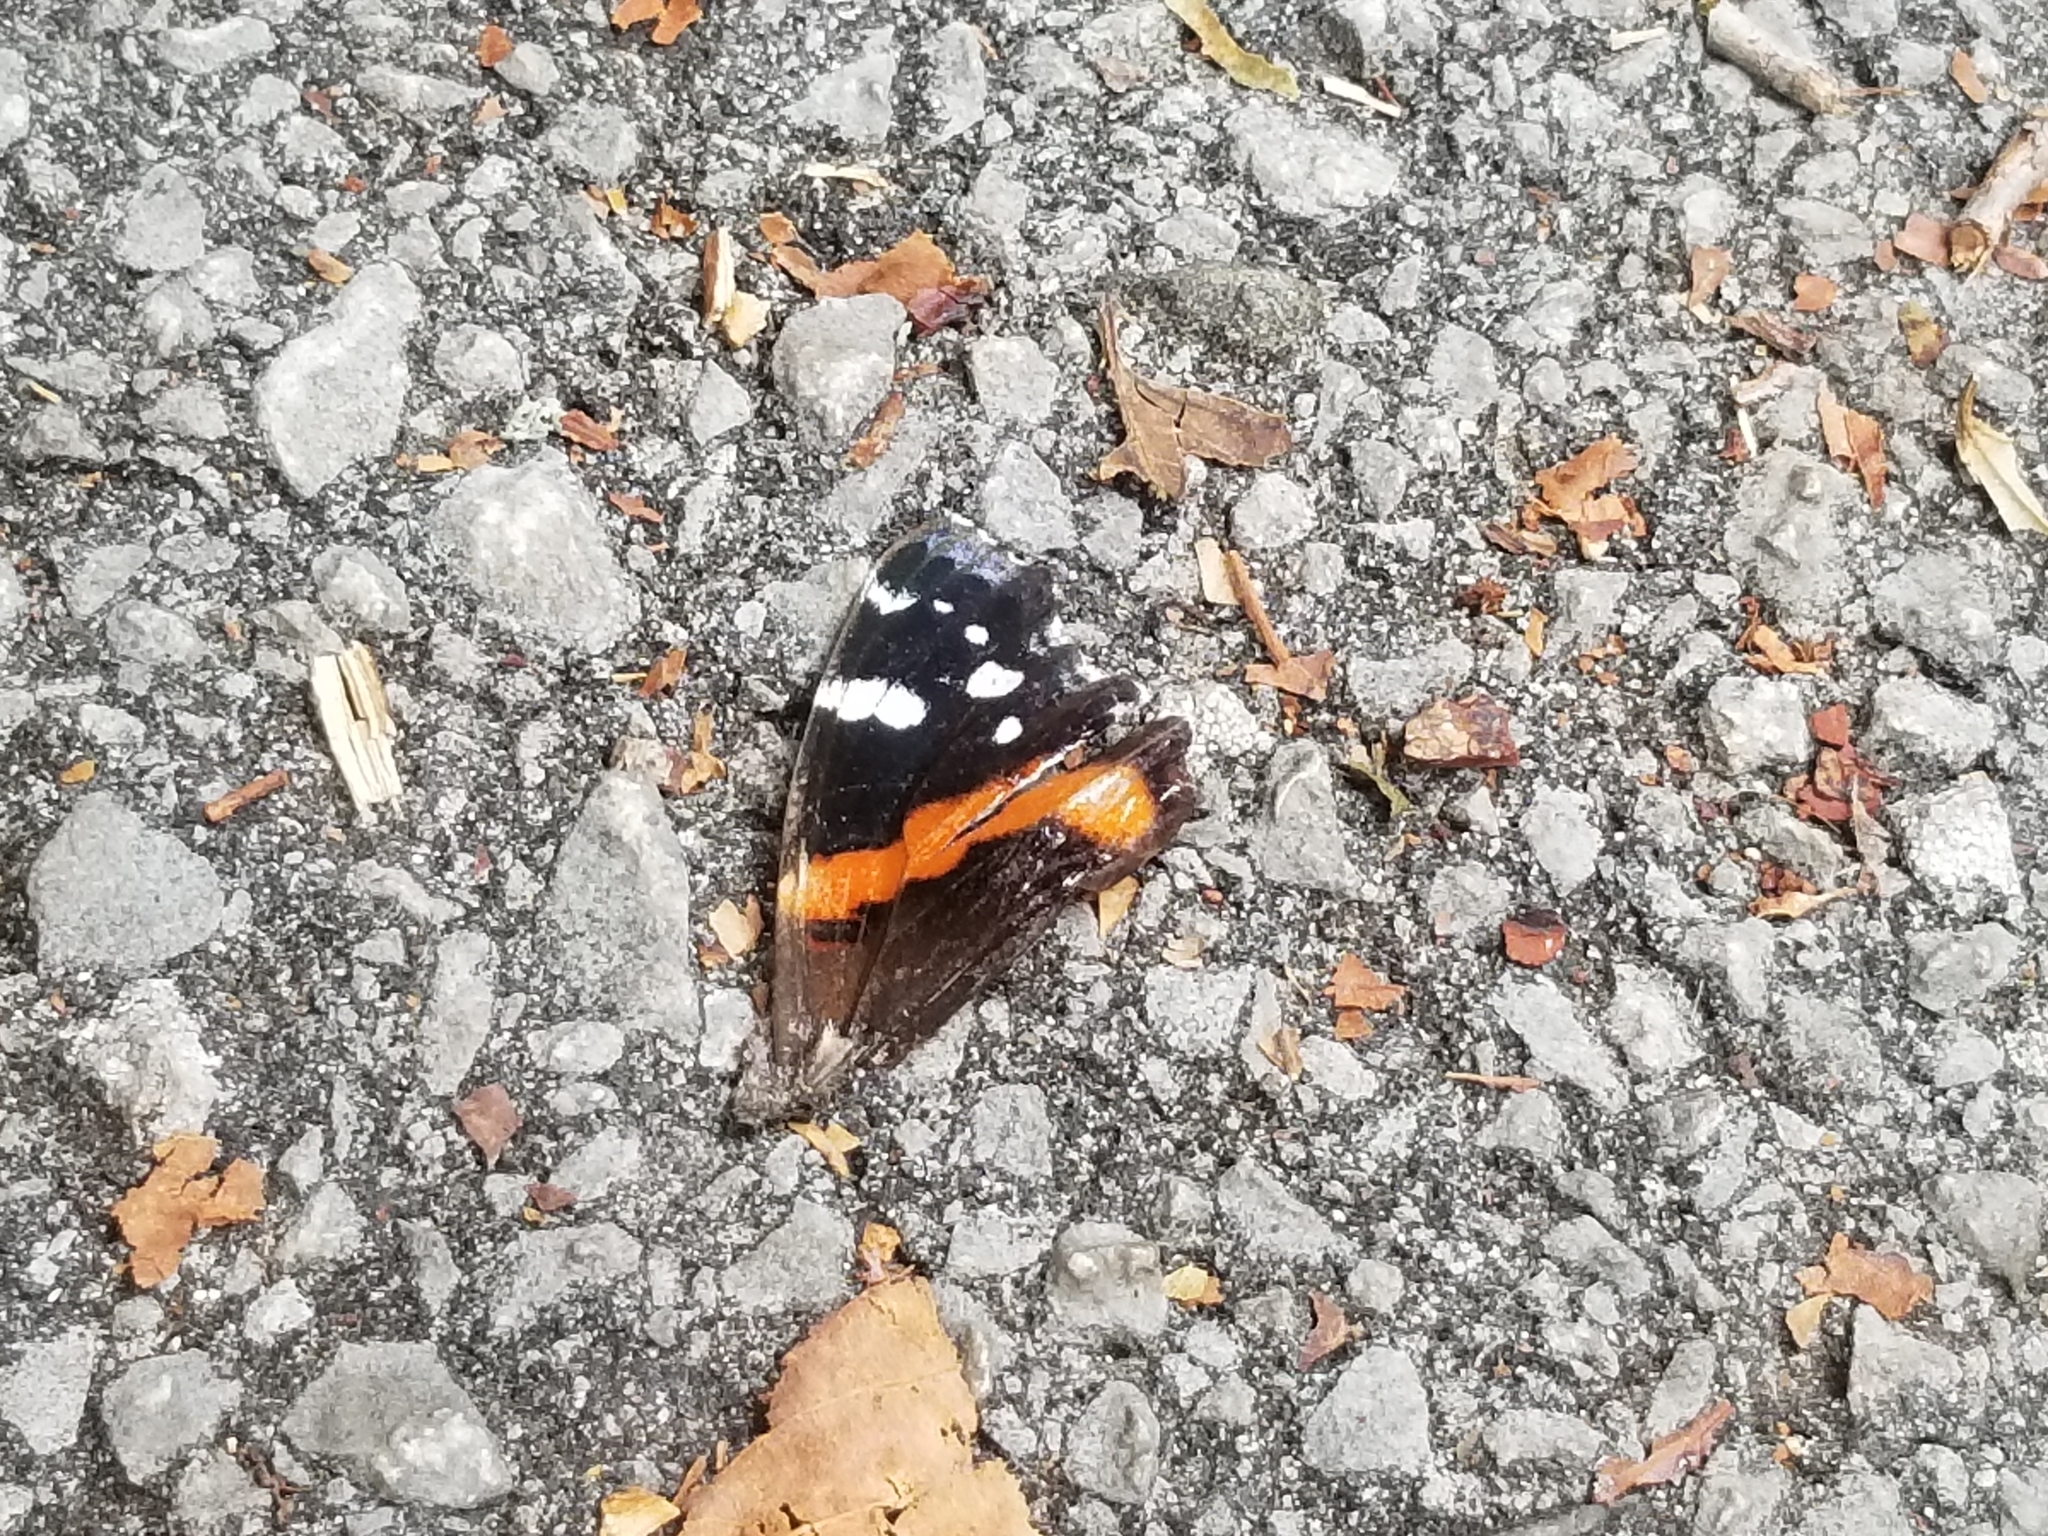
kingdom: Animalia
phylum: Arthropoda
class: Insecta
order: Lepidoptera
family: Nymphalidae
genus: Vanessa
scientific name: Vanessa atalanta
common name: Red admiral
